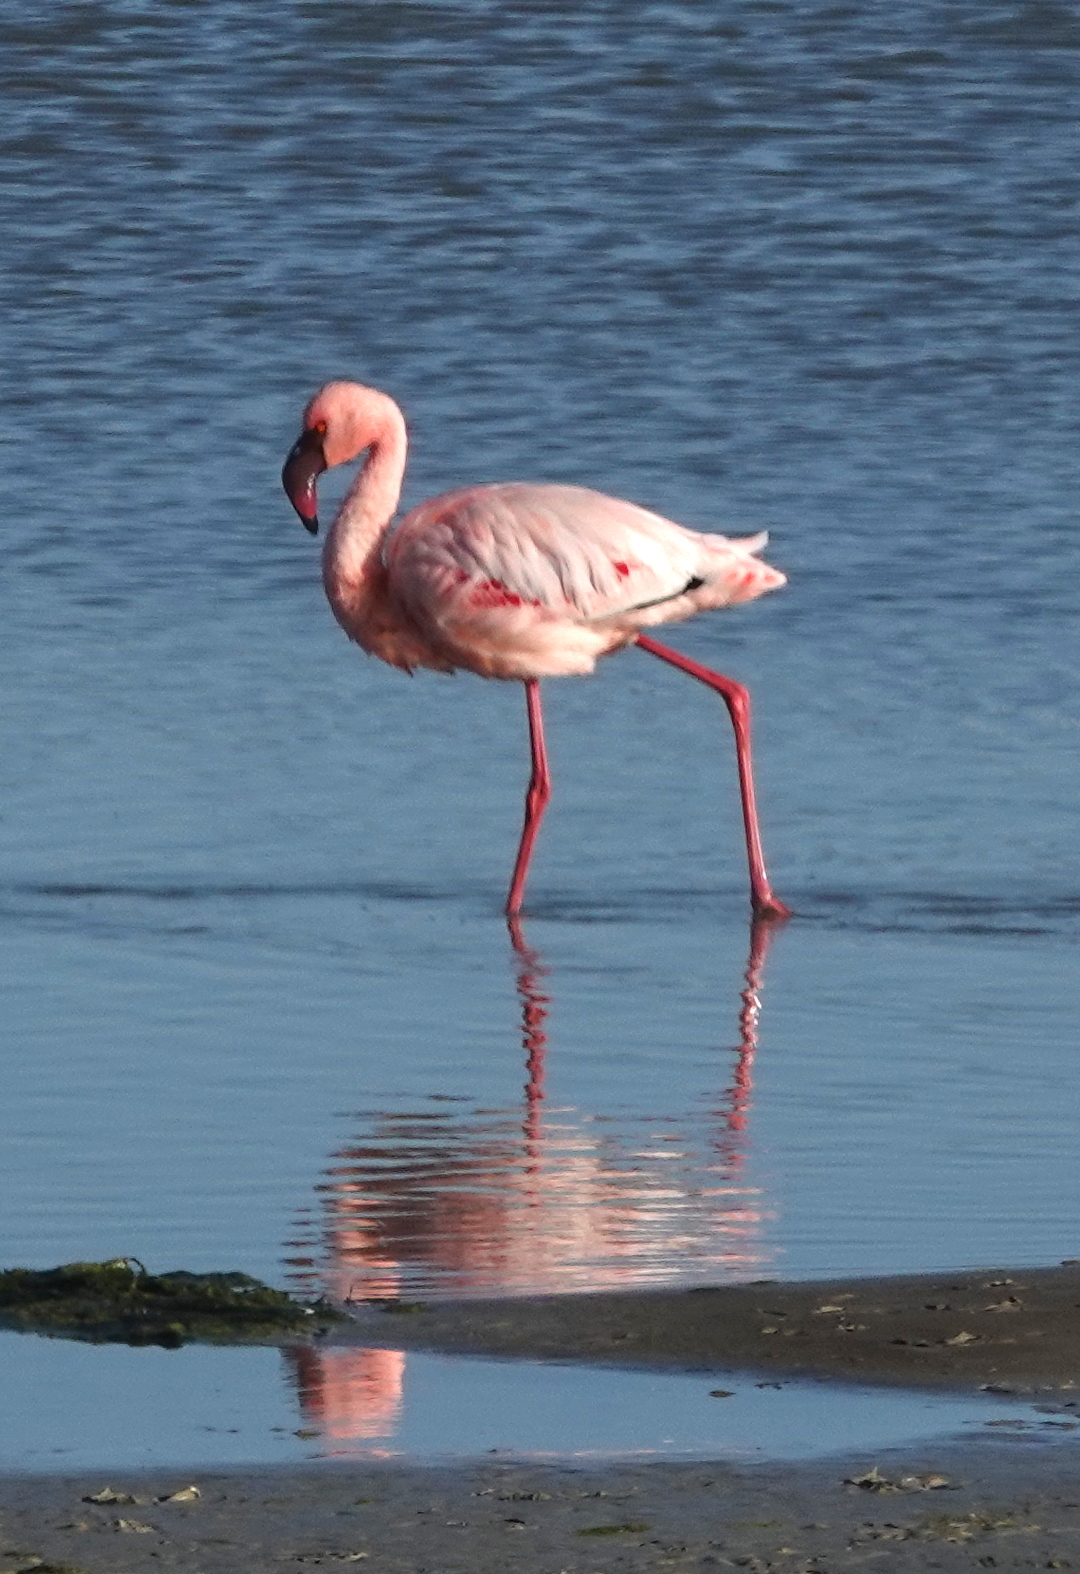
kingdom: Animalia
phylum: Chordata
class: Aves
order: Phoenicopteriformes
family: Phoenicopteridae
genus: Phoeniconaias
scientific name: Phoeniconaias minor
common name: Lesser flamingo
